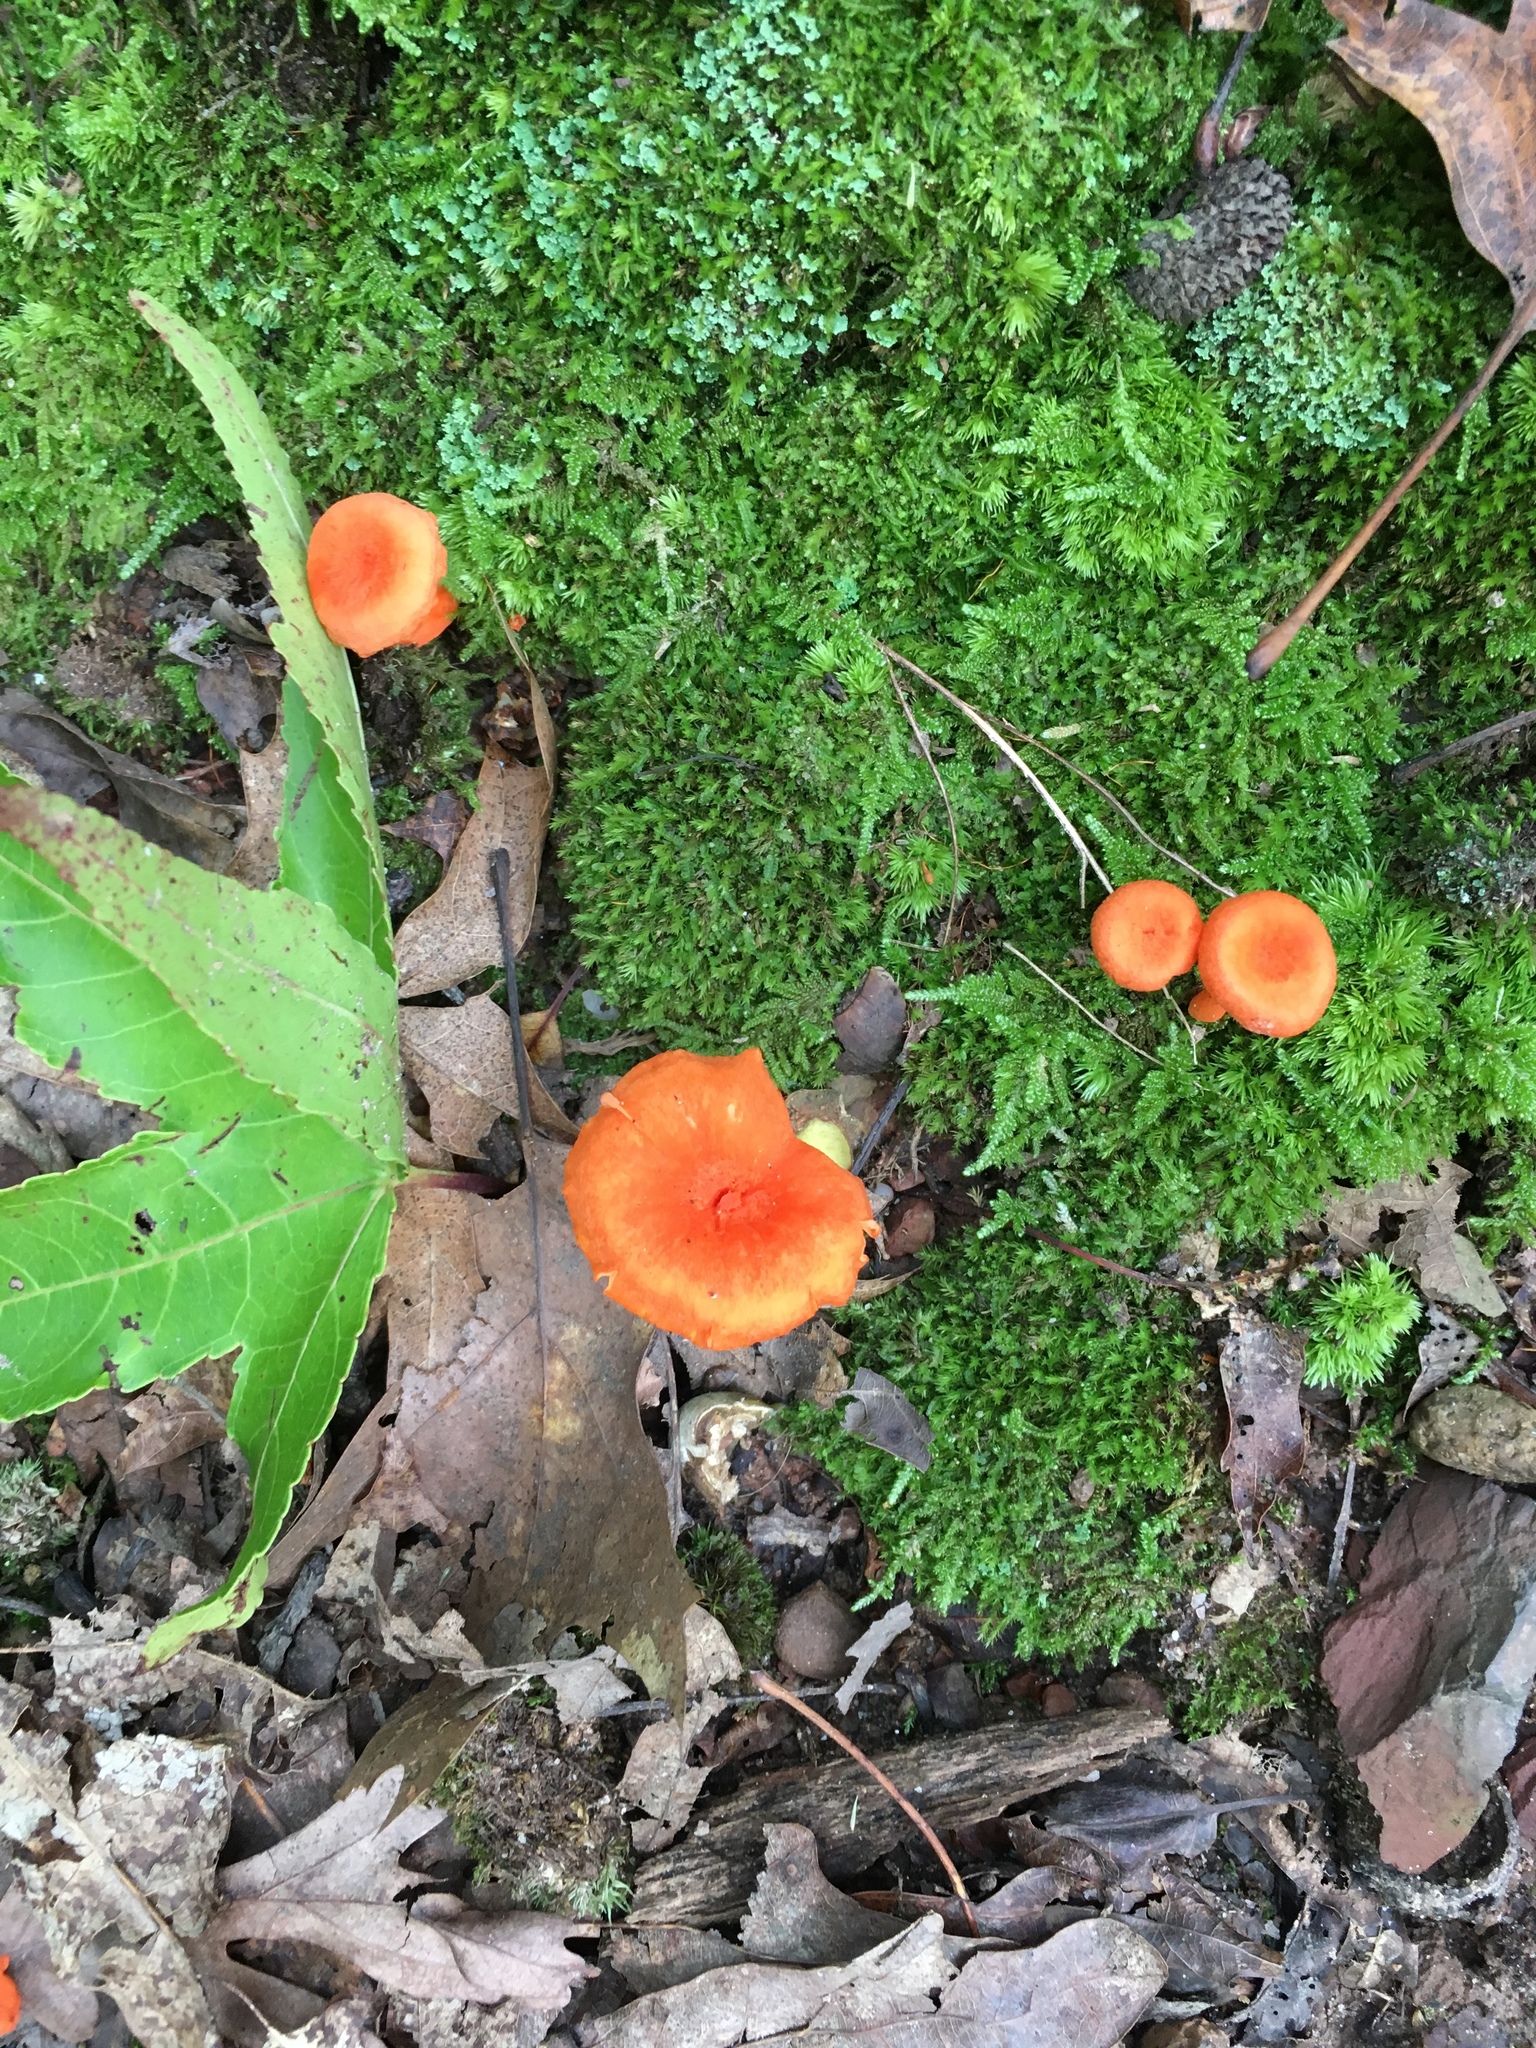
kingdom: Fungi
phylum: Basidiomycota
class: Agaricomycetes
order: Cantharellales
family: Hydnaceae
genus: Cantharellus
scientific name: Cantharellus cinnabarinus
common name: Cinnabar chanterelle
